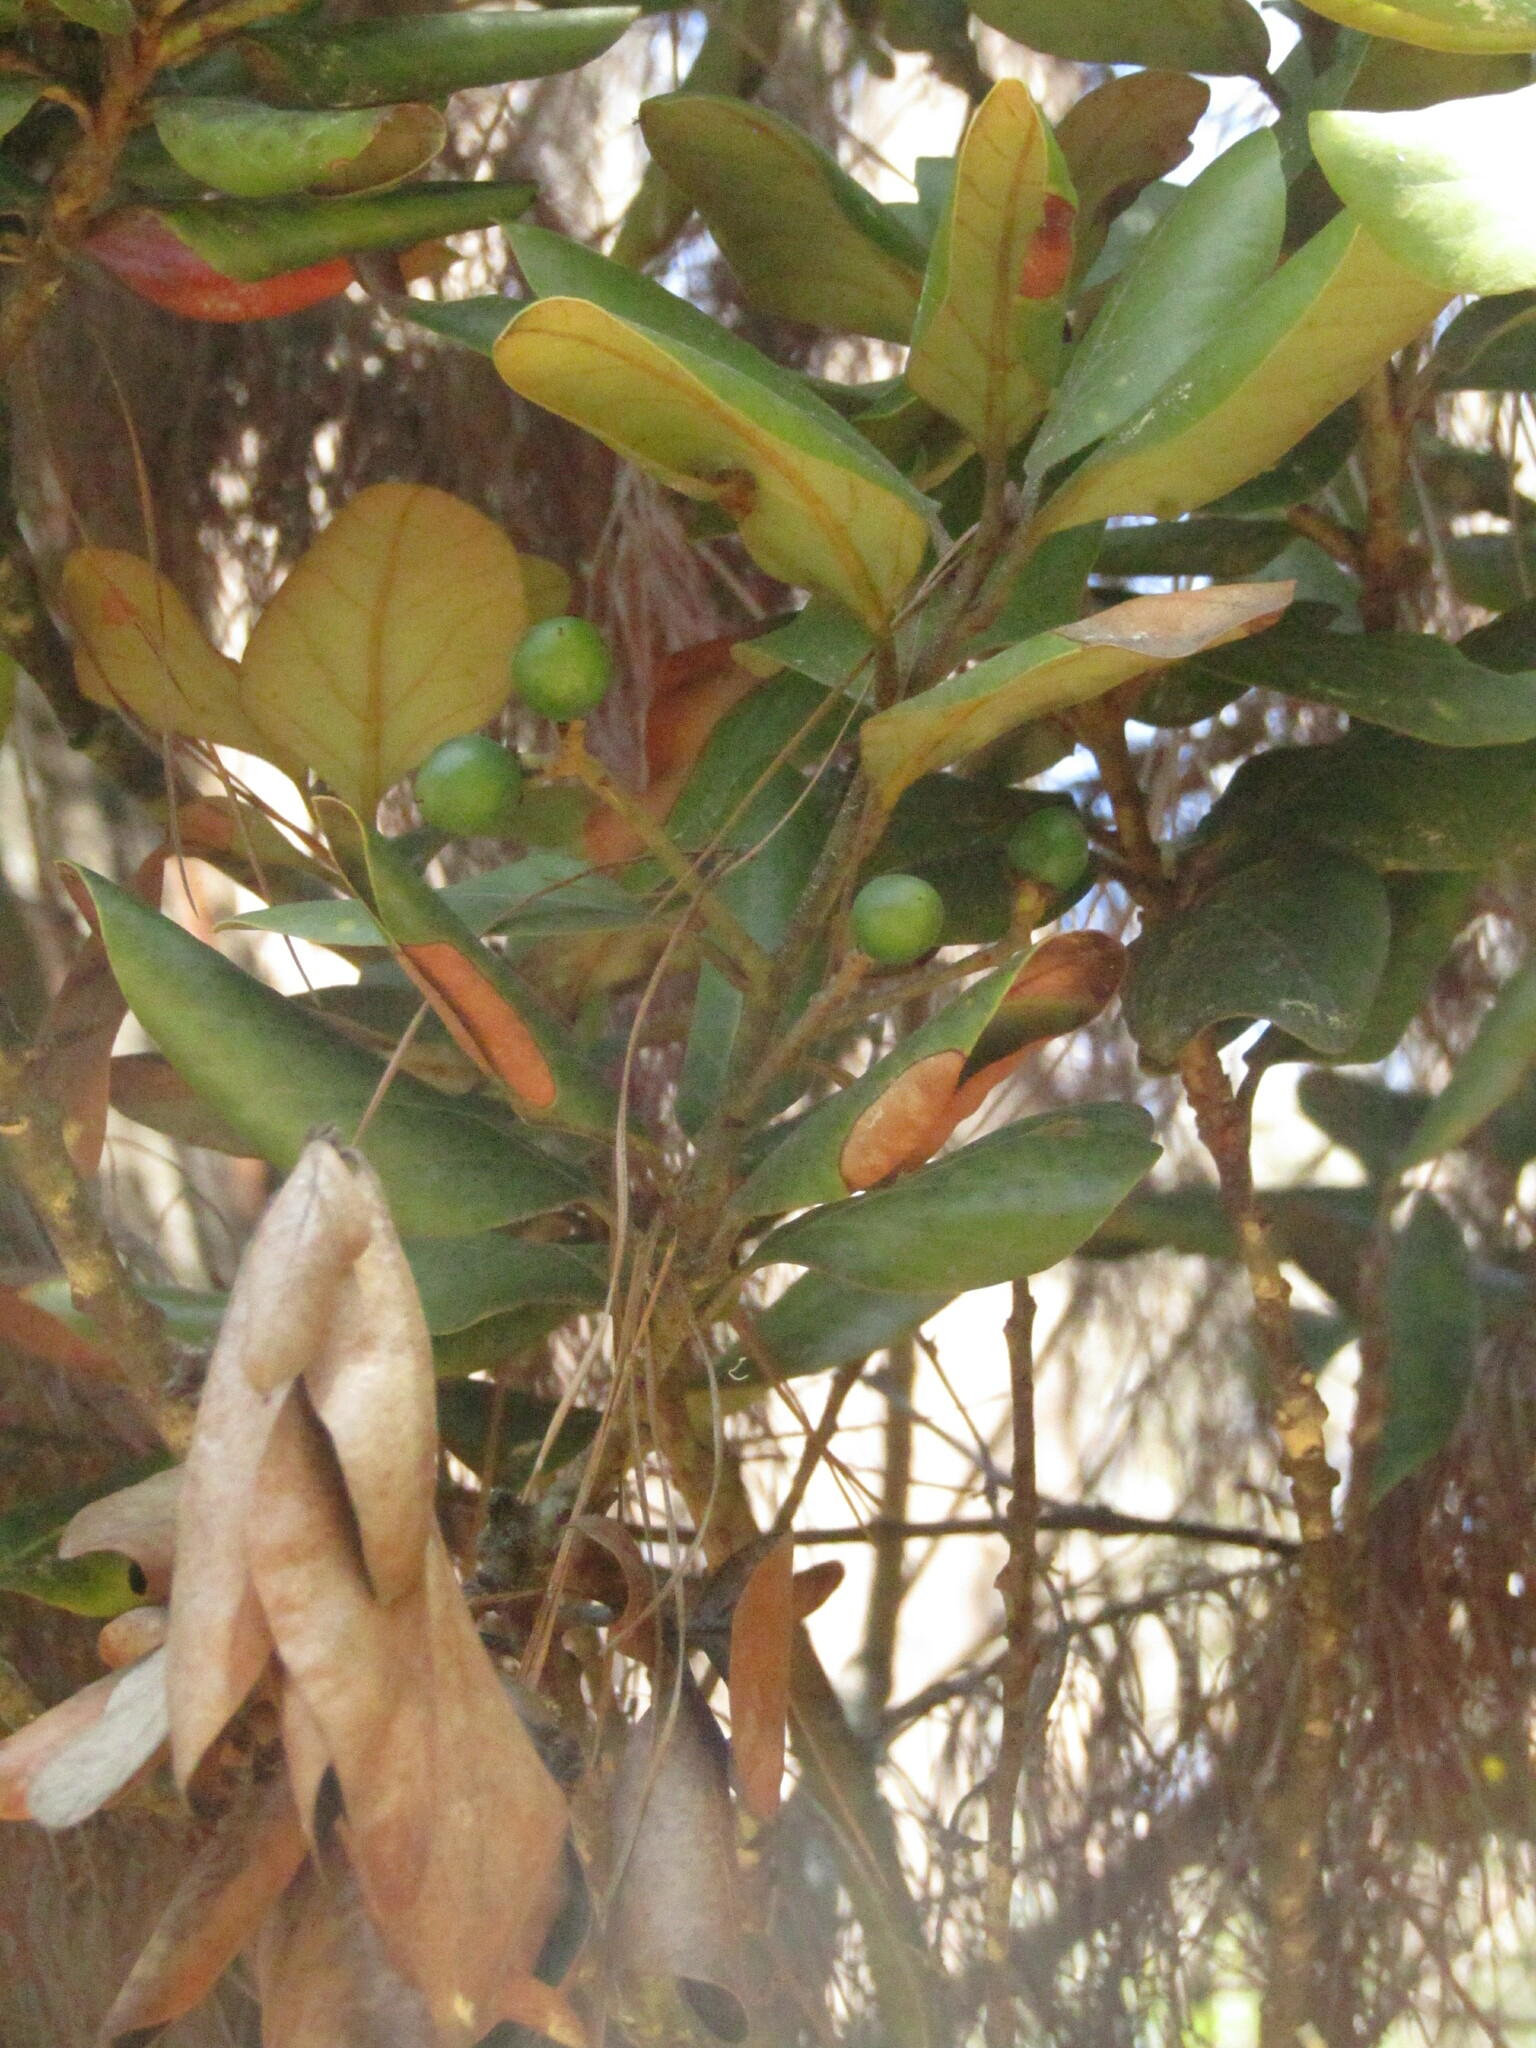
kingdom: Plantae
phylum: Tracheophyta
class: Magnoliopsida
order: Laurales
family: Lauraceae
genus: Persea
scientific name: Persea lingue
